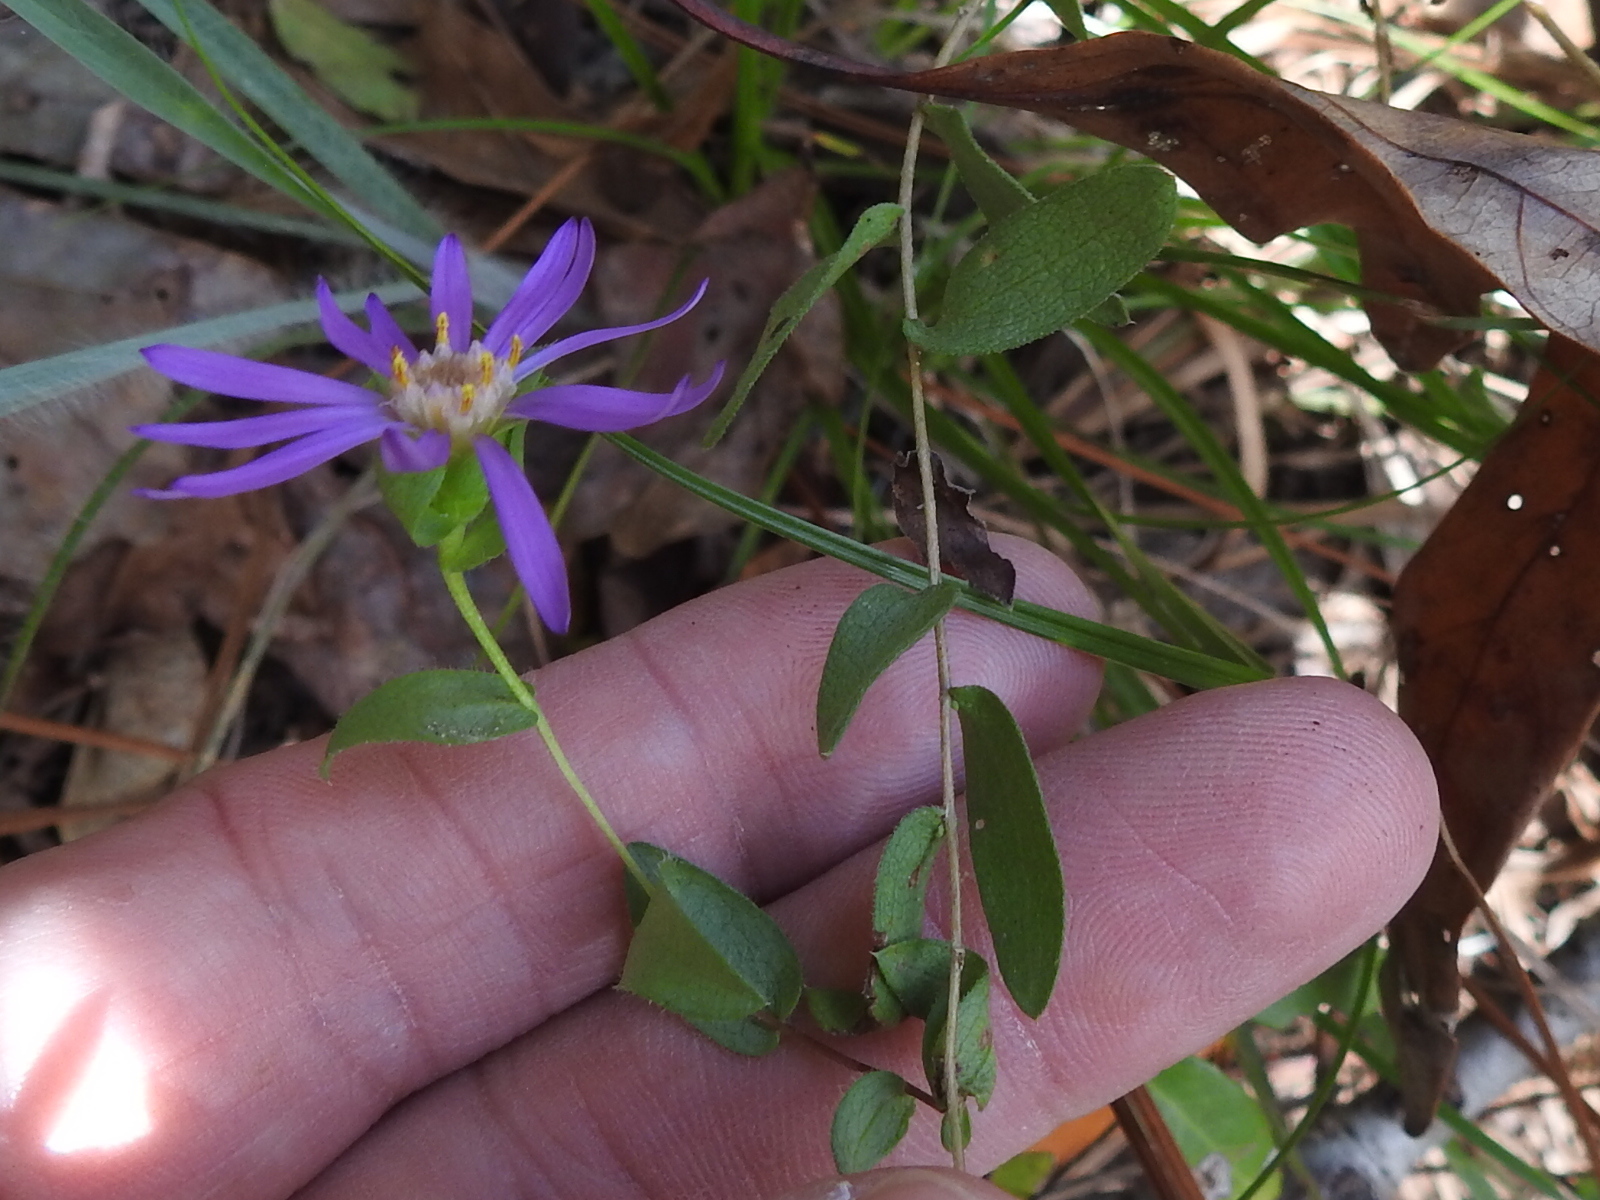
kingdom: Plantae
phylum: Tracheophyta
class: Magnoliopsida
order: Asterales
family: Asteraceae
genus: Symphyotrichum
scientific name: Symphyotrichum pratense
